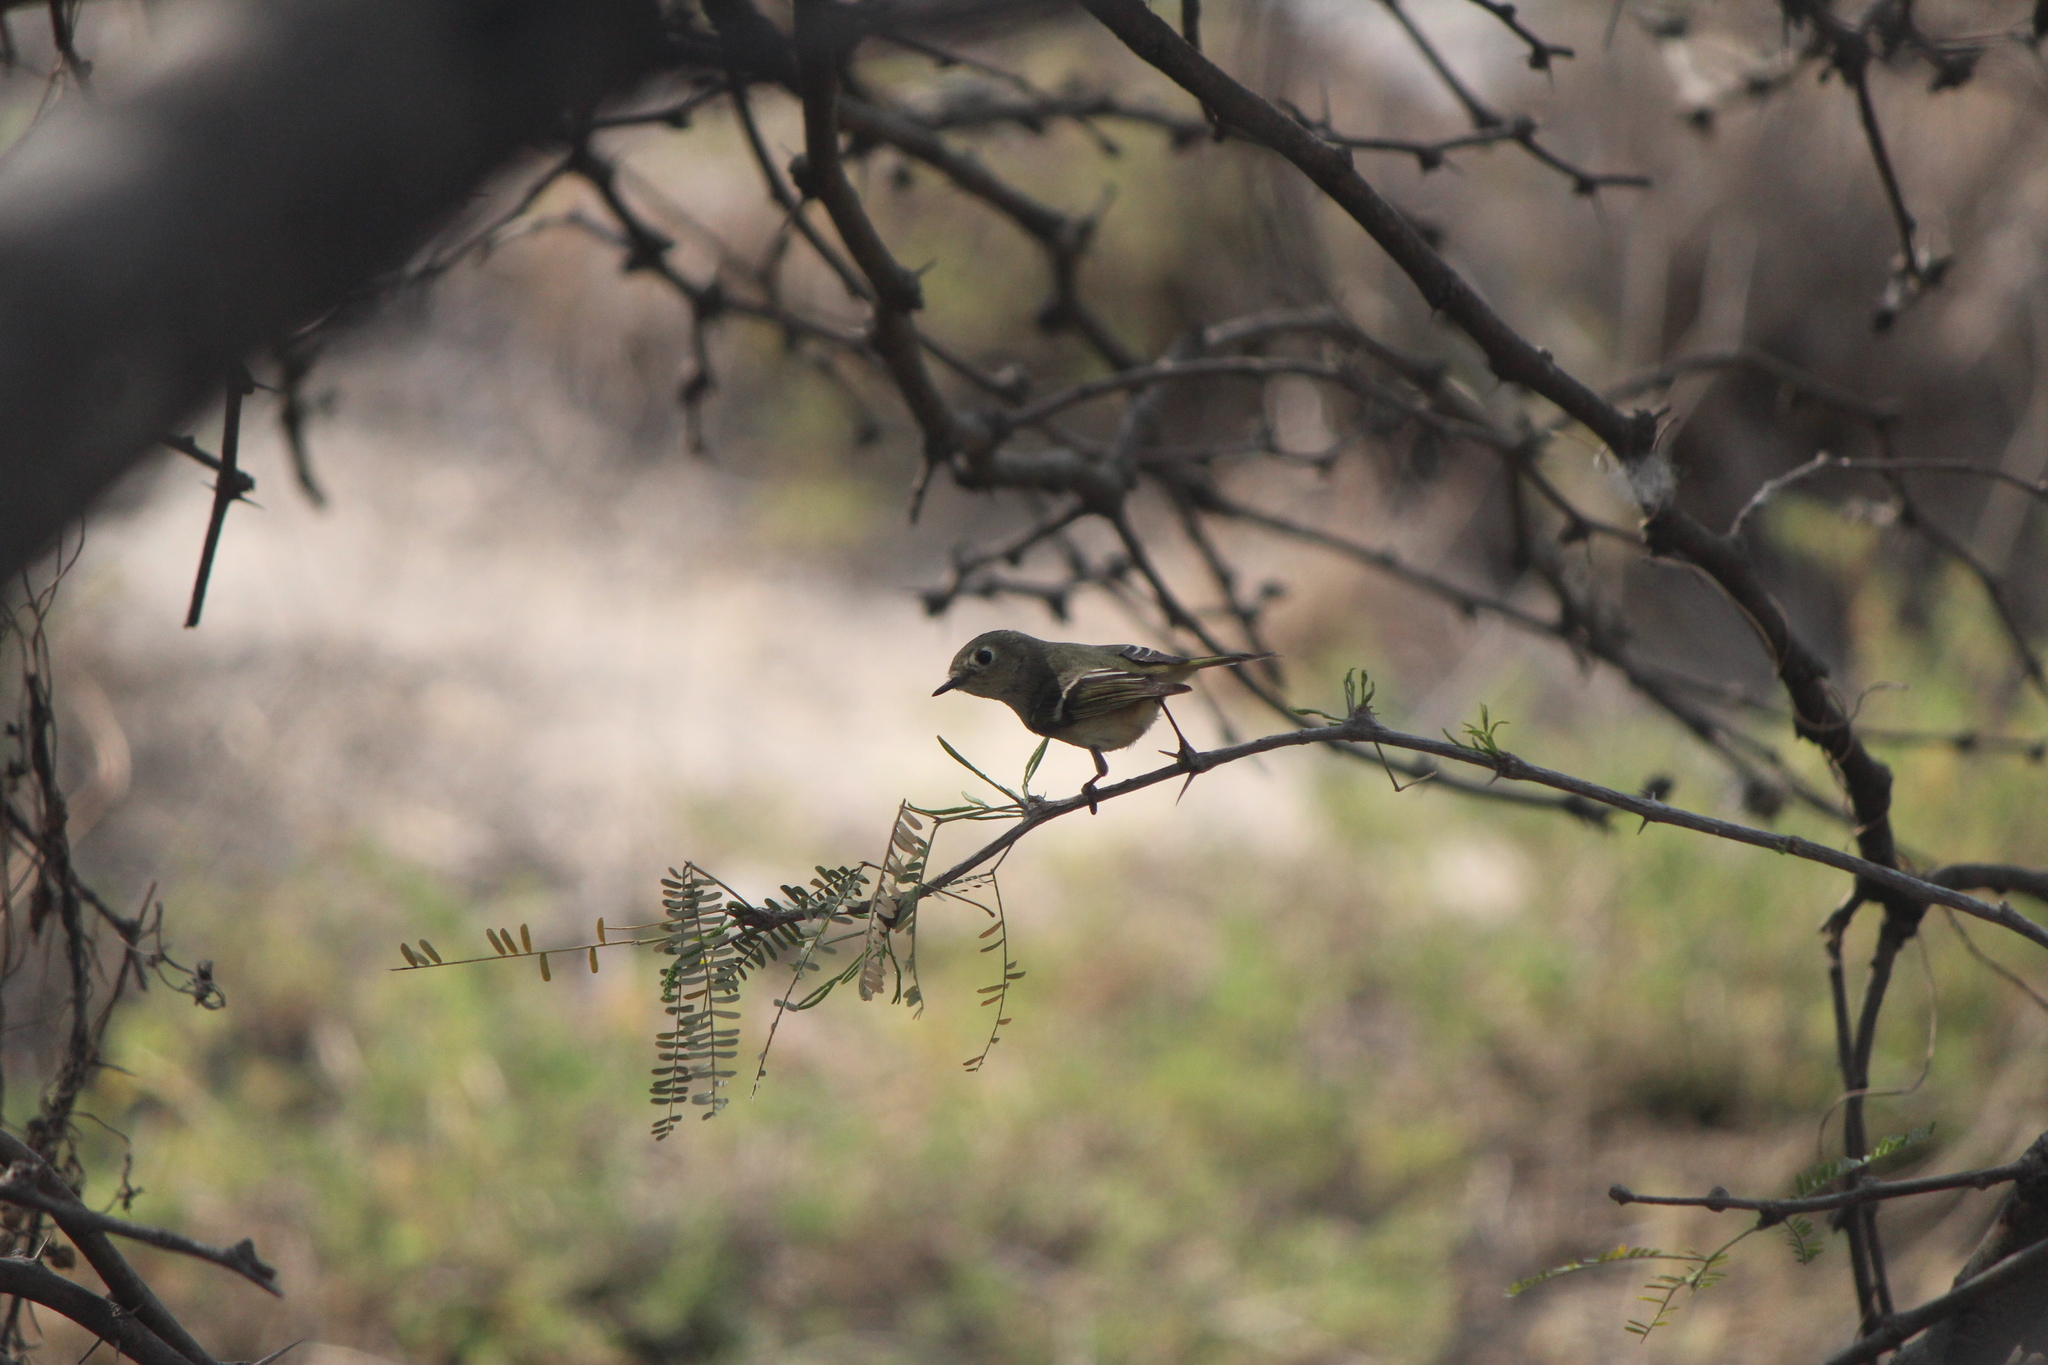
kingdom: Animalia
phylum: Chordata
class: Aves
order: Passeriformes
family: Regulidae
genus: Regulus
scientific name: Regulus calendula
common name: Ruby-crowned kinglet
